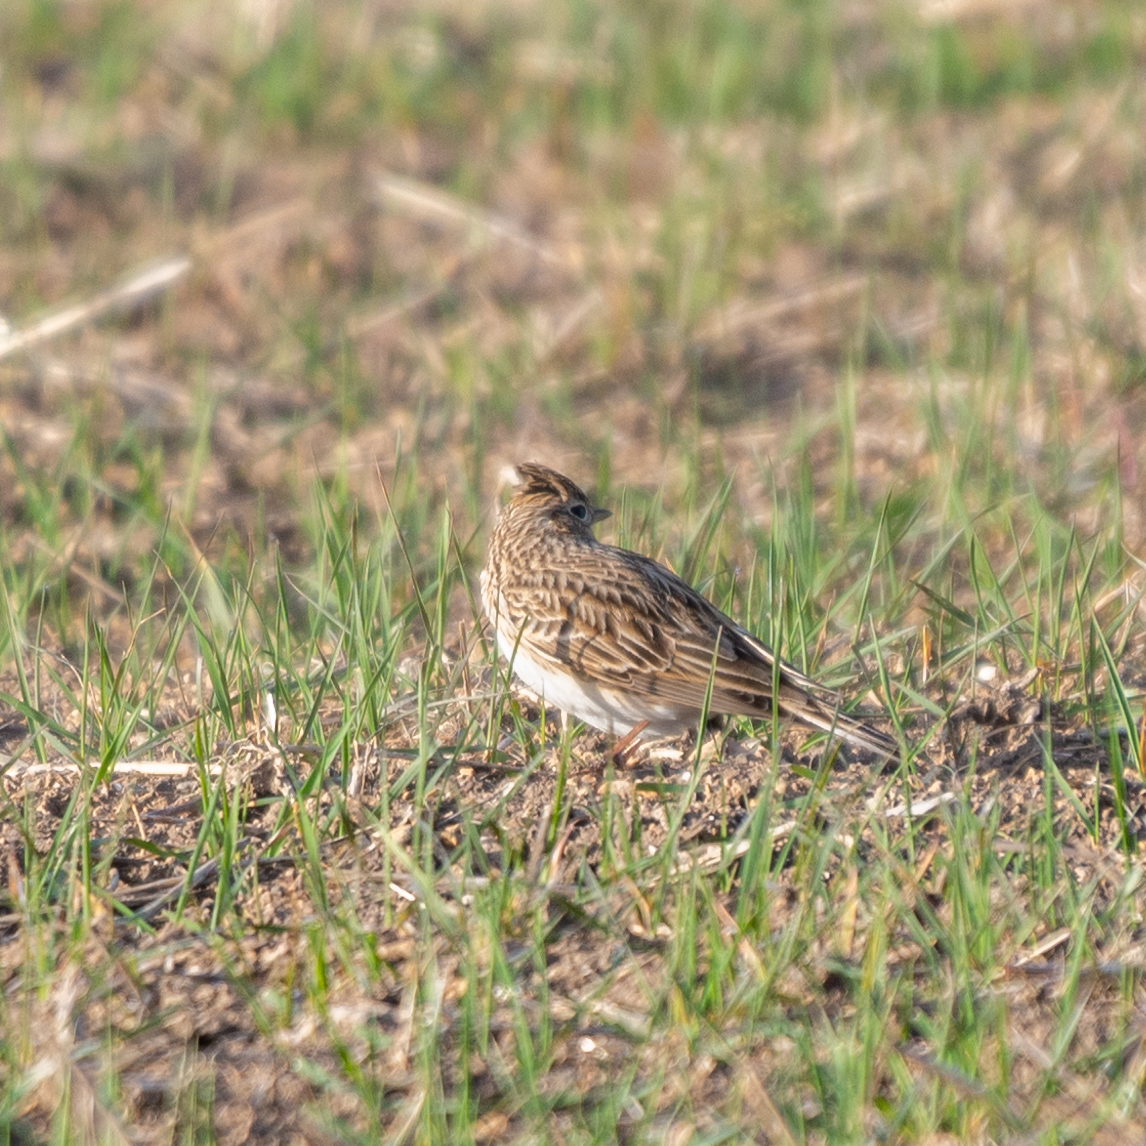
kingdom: Animalia
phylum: Chordata
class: Aves
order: Passeriformes
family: Alaudidae
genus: Alauda
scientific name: Alauda arvensis
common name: Eurasian skylark
